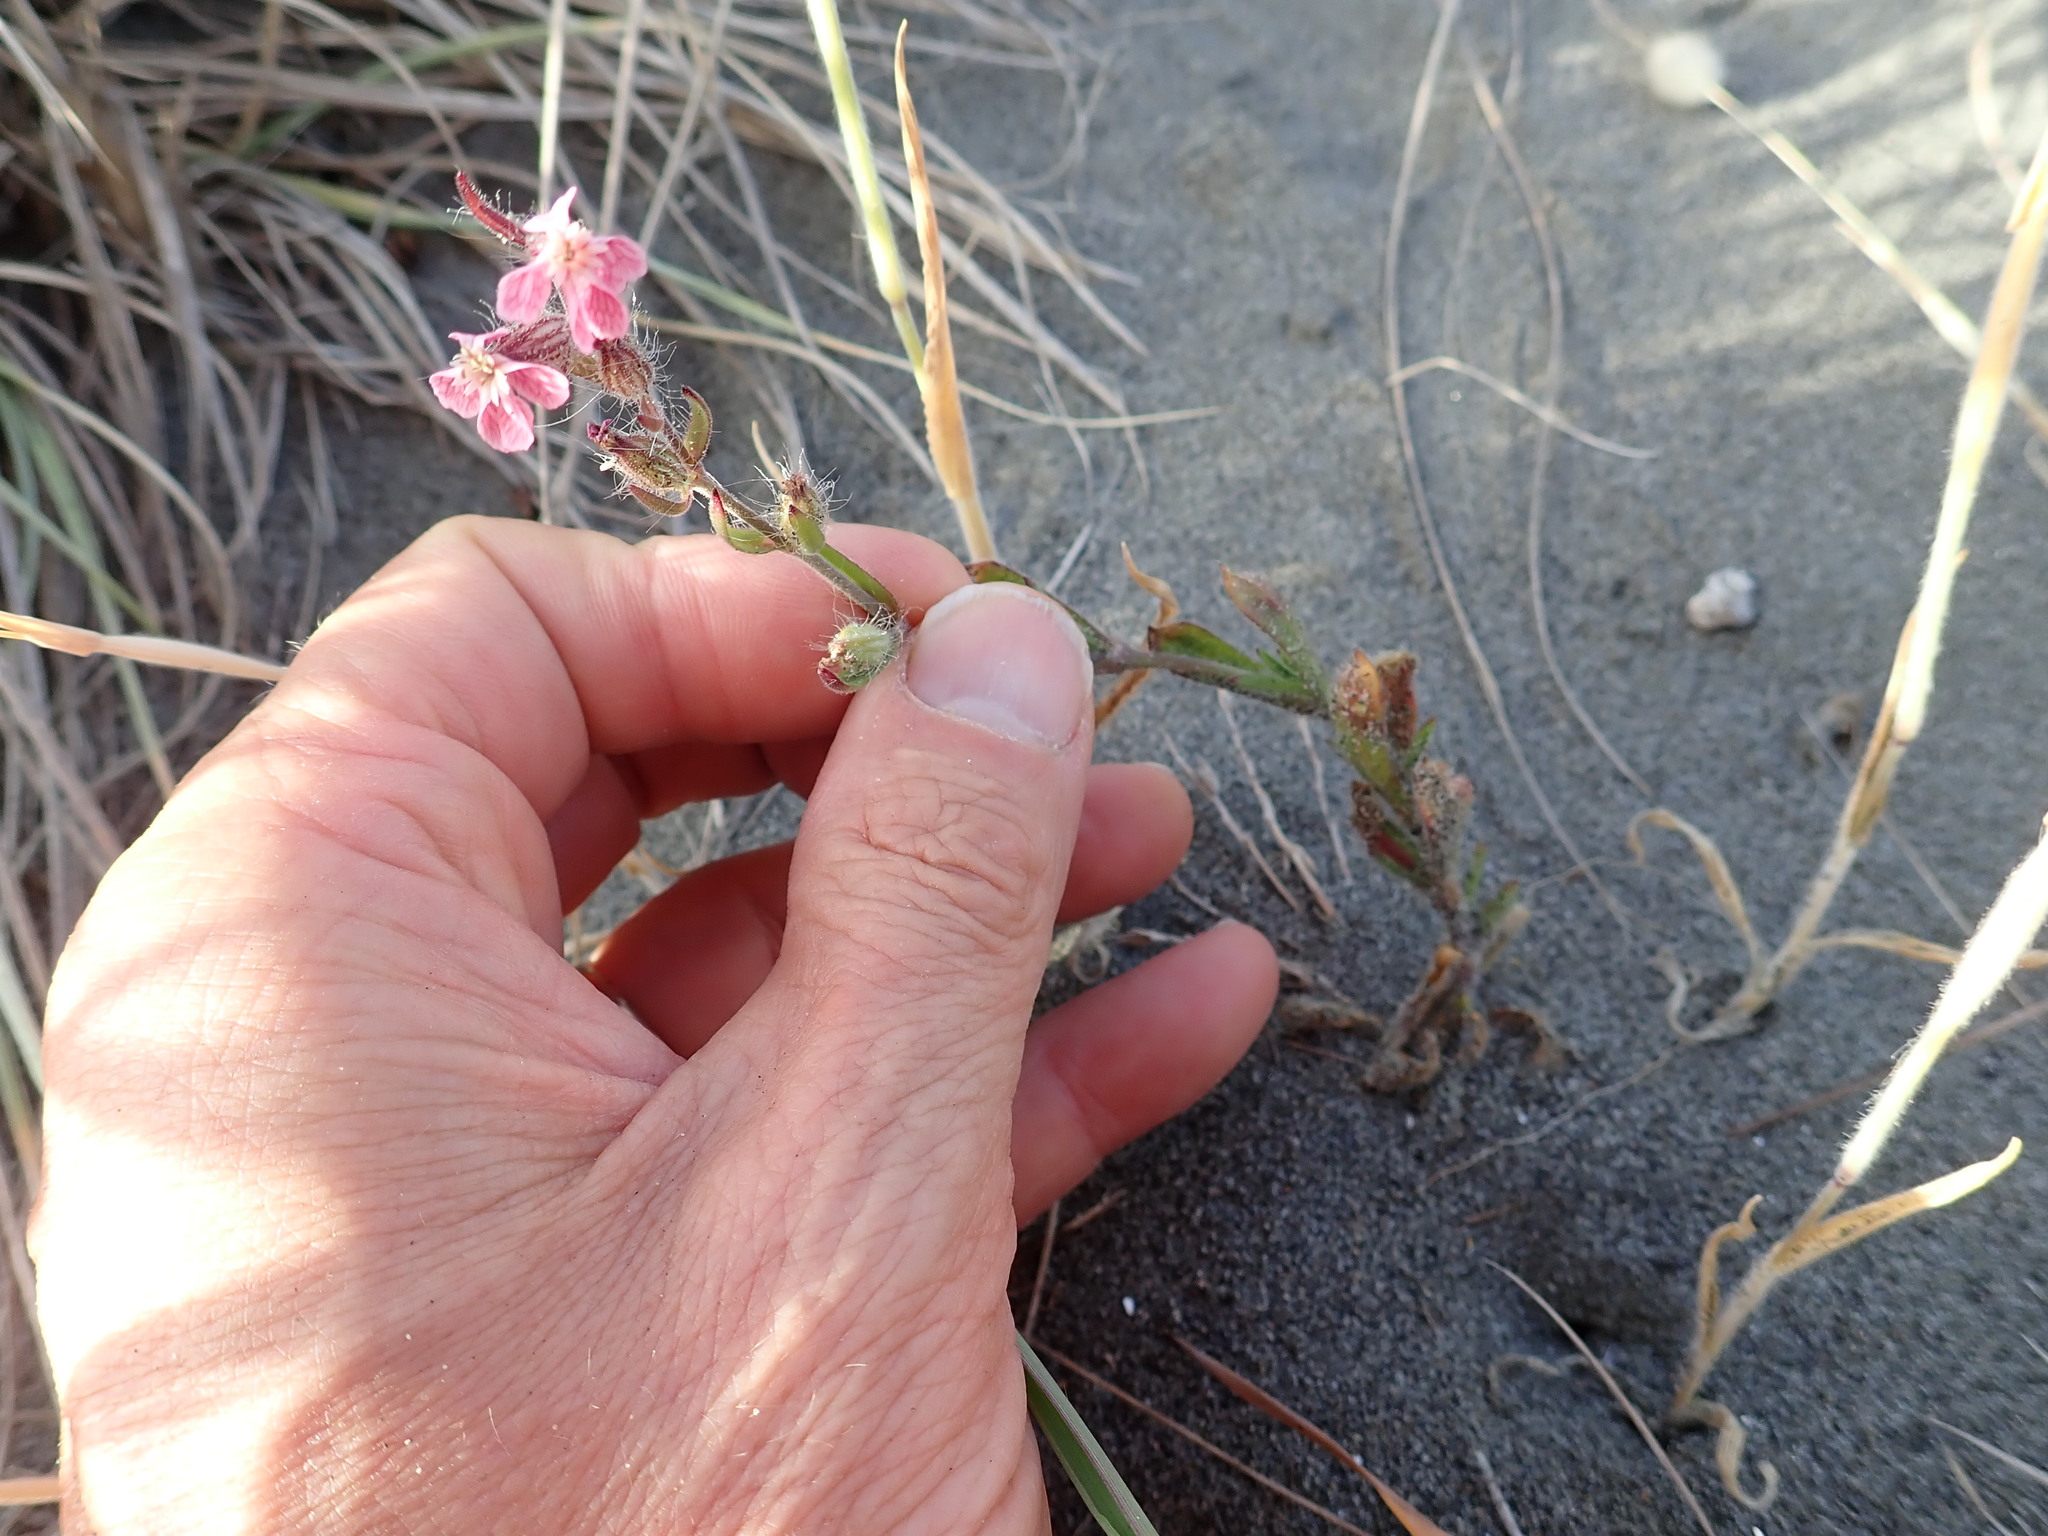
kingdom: Plantae
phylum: Tracheophyta
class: Magnoliopsida
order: Caryophyllales
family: Caryophyllaceae
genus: Silene
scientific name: Silene gallica
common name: Small-flowered catchfly
